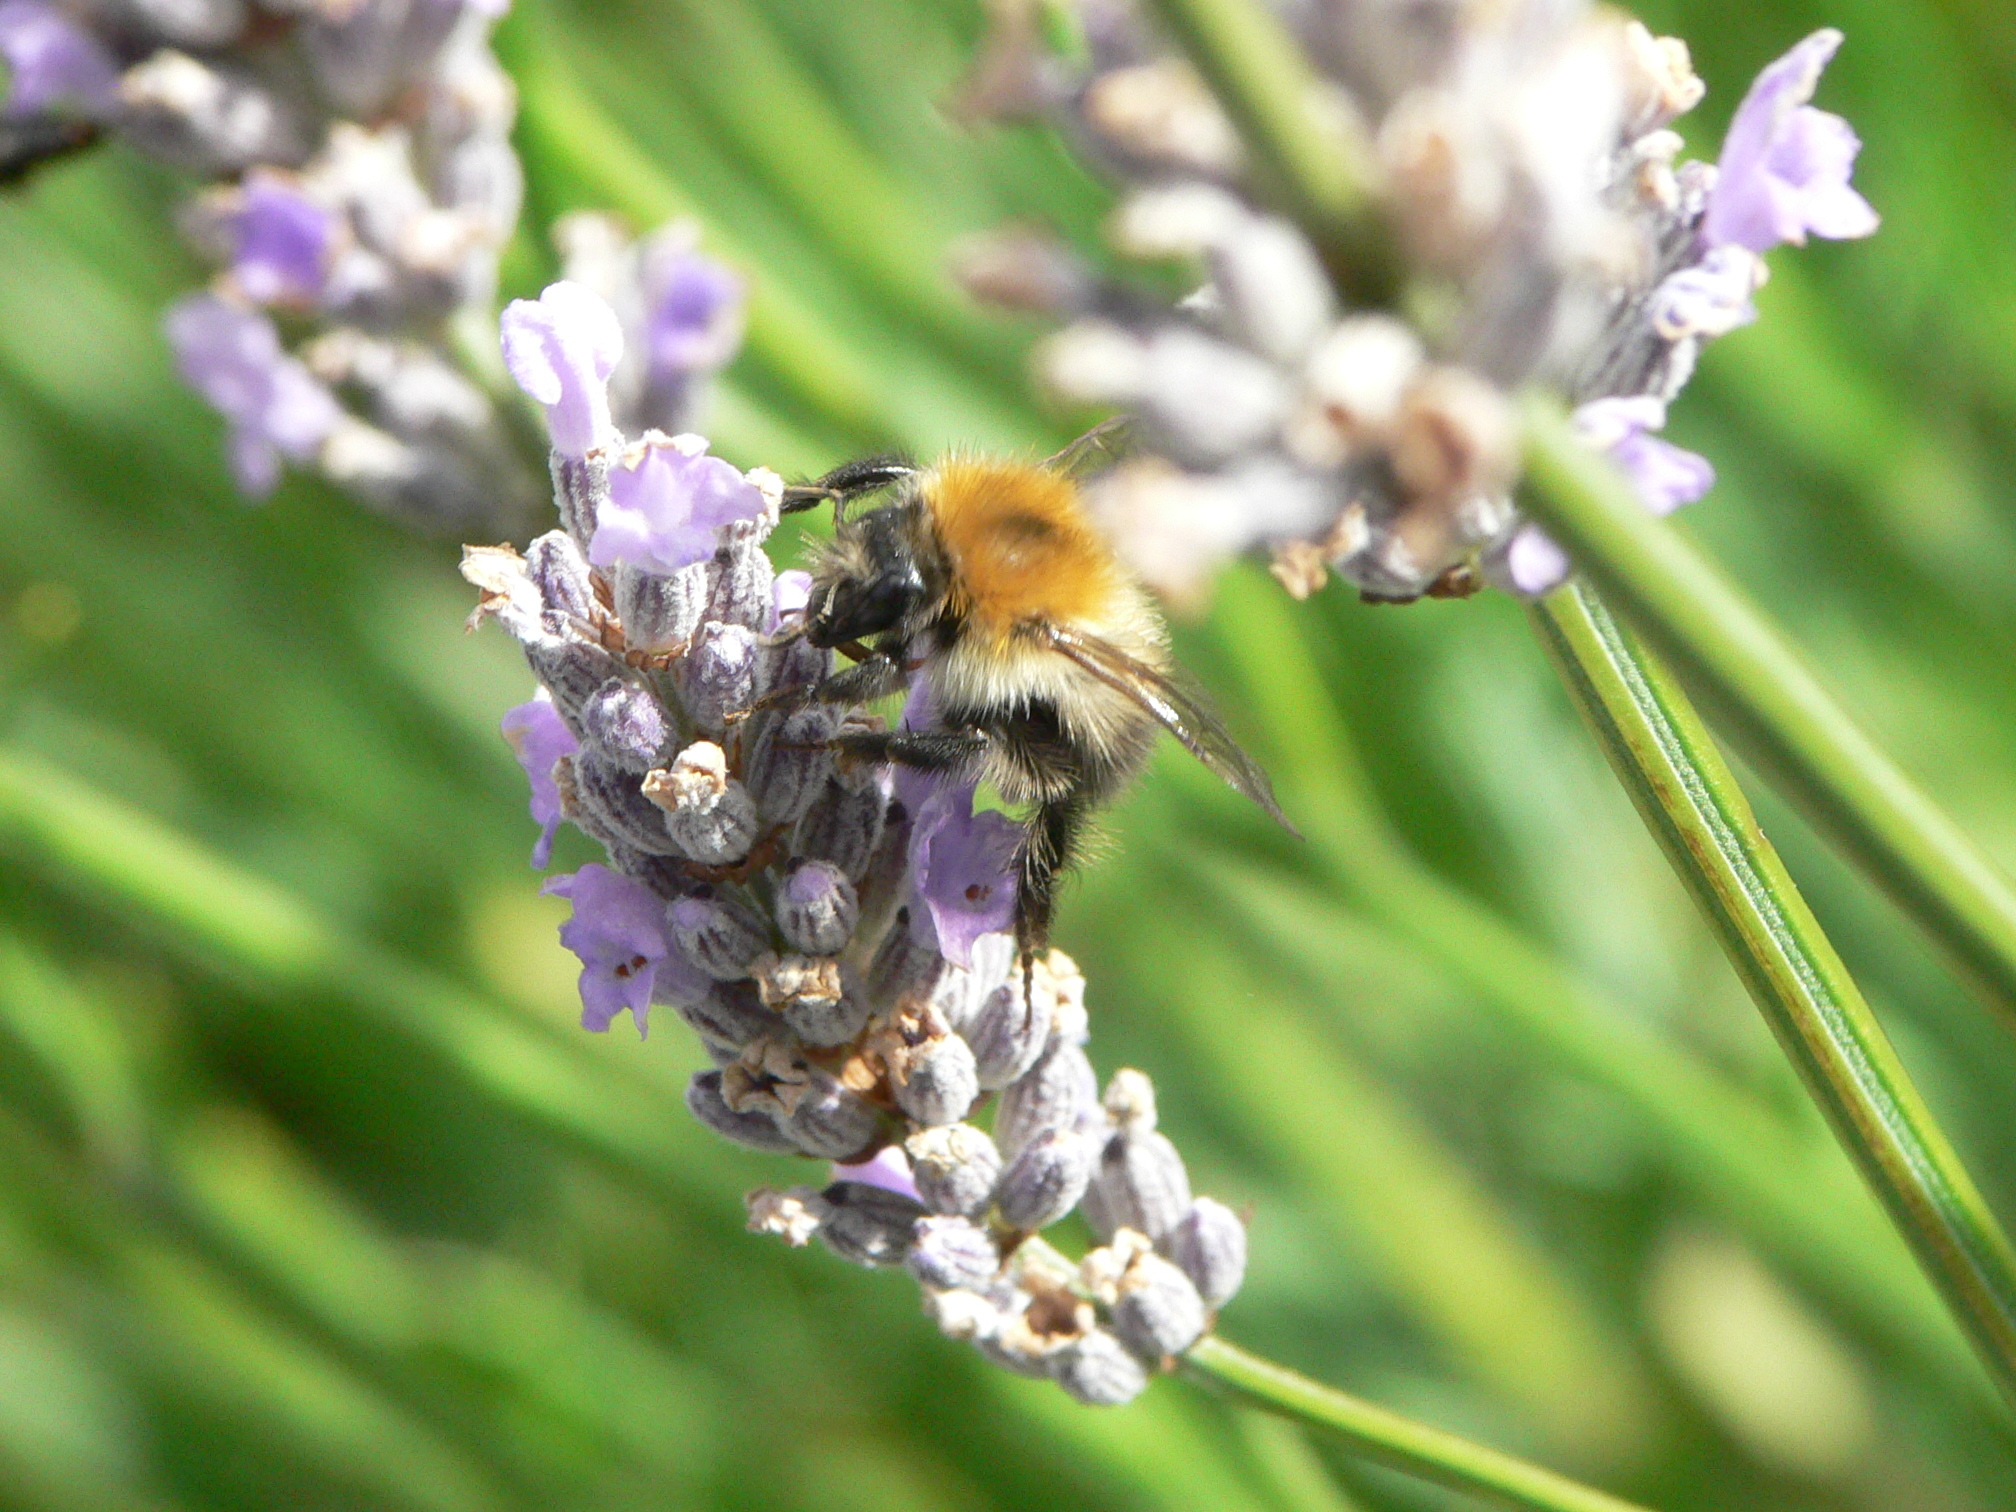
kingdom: Animalia
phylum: Arthropoda
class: Insecta
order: Hymenoptera
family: Apidae
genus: Bombus
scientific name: Bombus pascuorum
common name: Common carder bee
